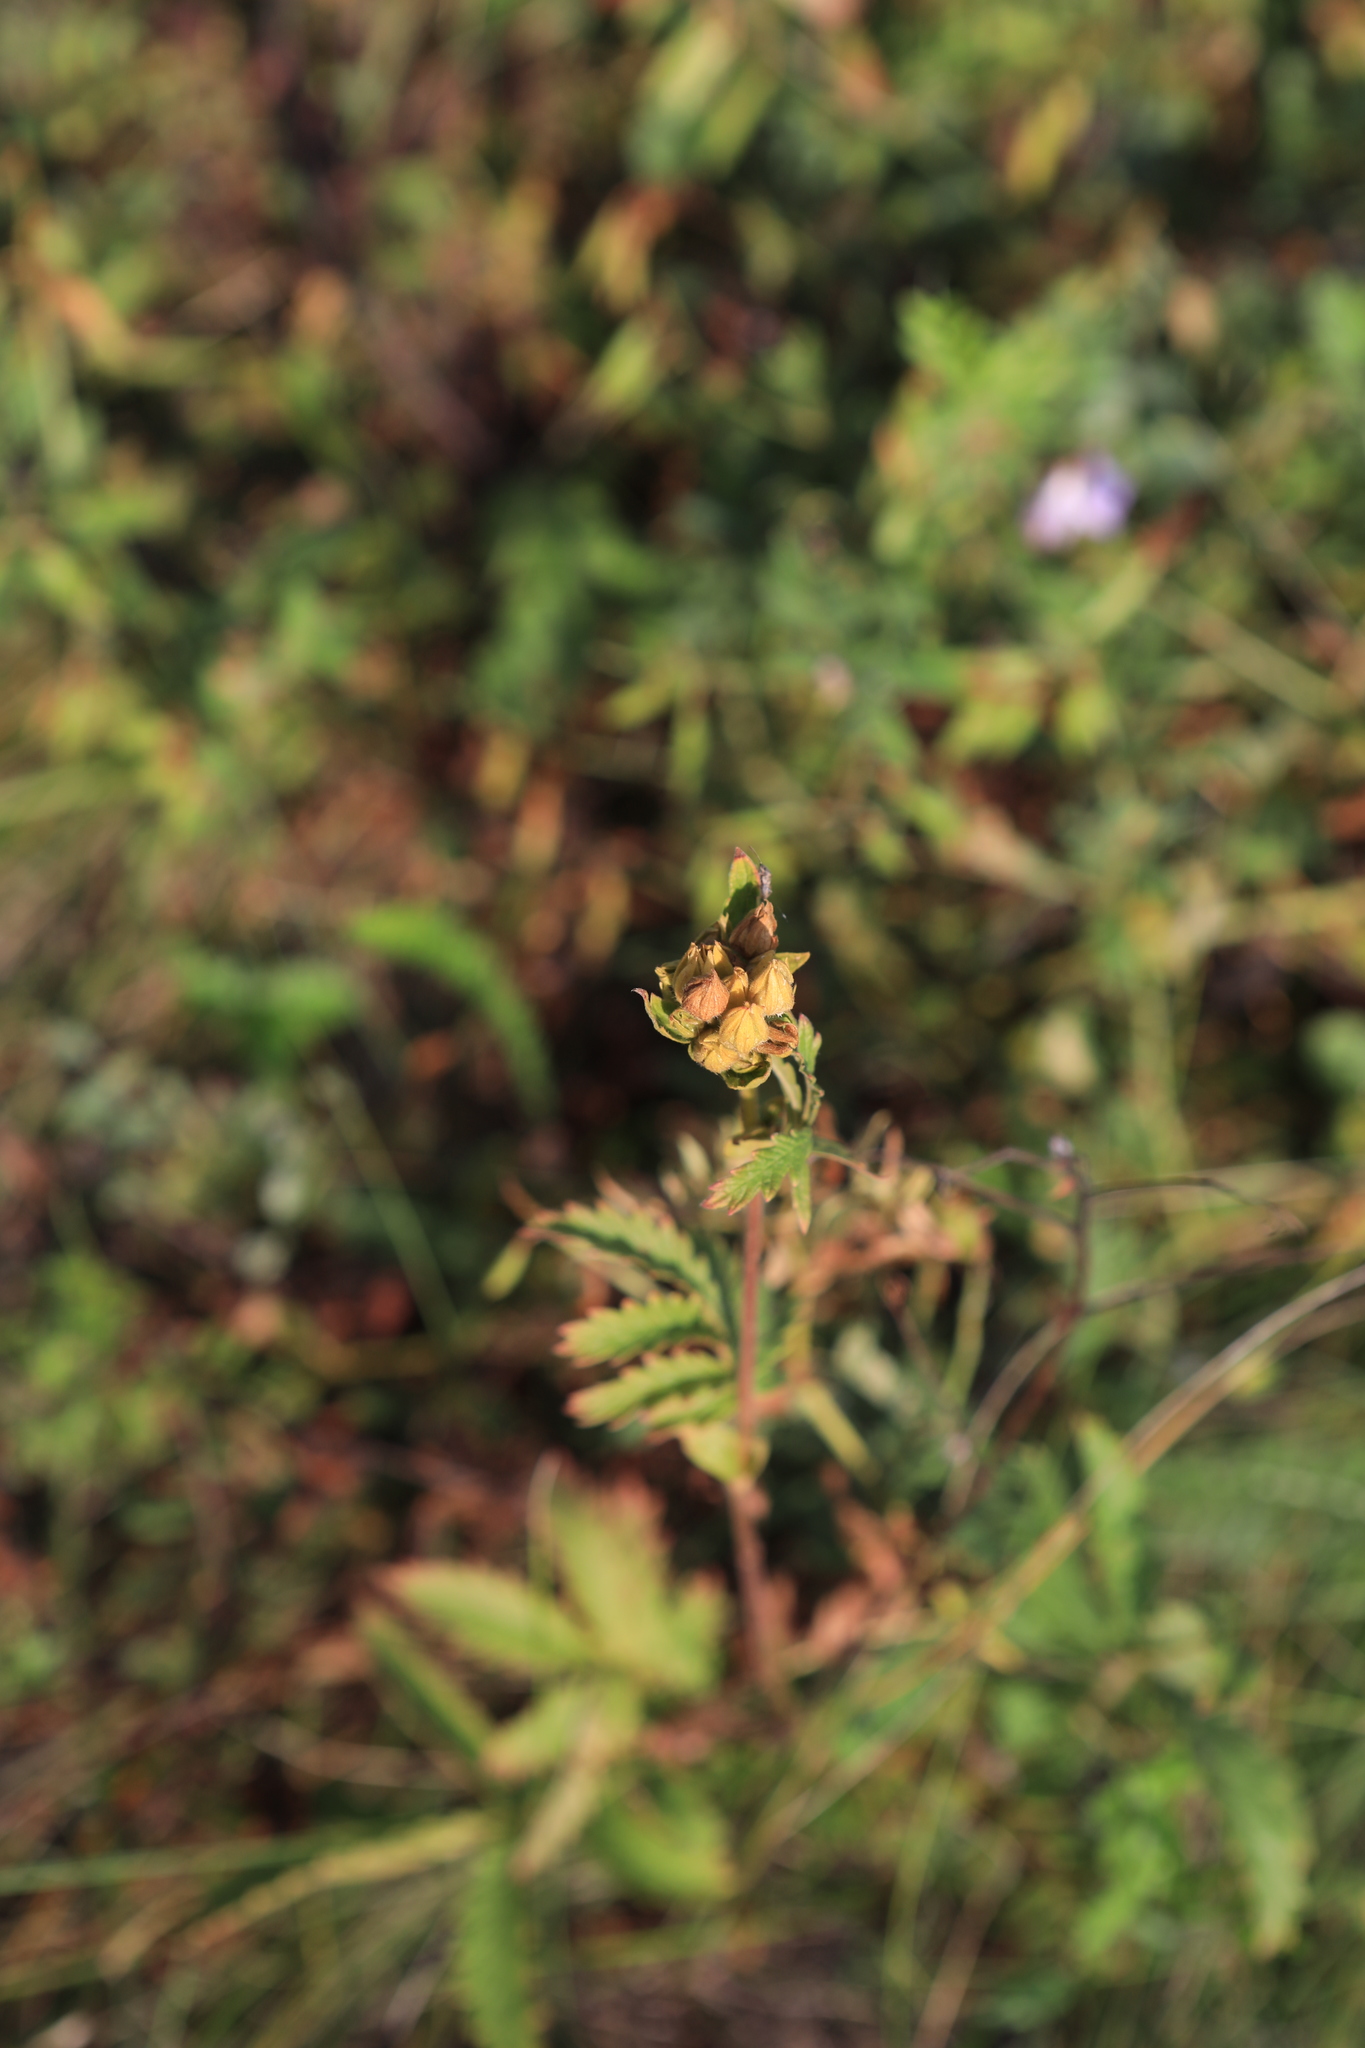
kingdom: Plantae
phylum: Tracheophyta
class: Magnoliopsida
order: Rosales
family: Rosaceae
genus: Agrimonia
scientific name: Agrimonia pilosa
